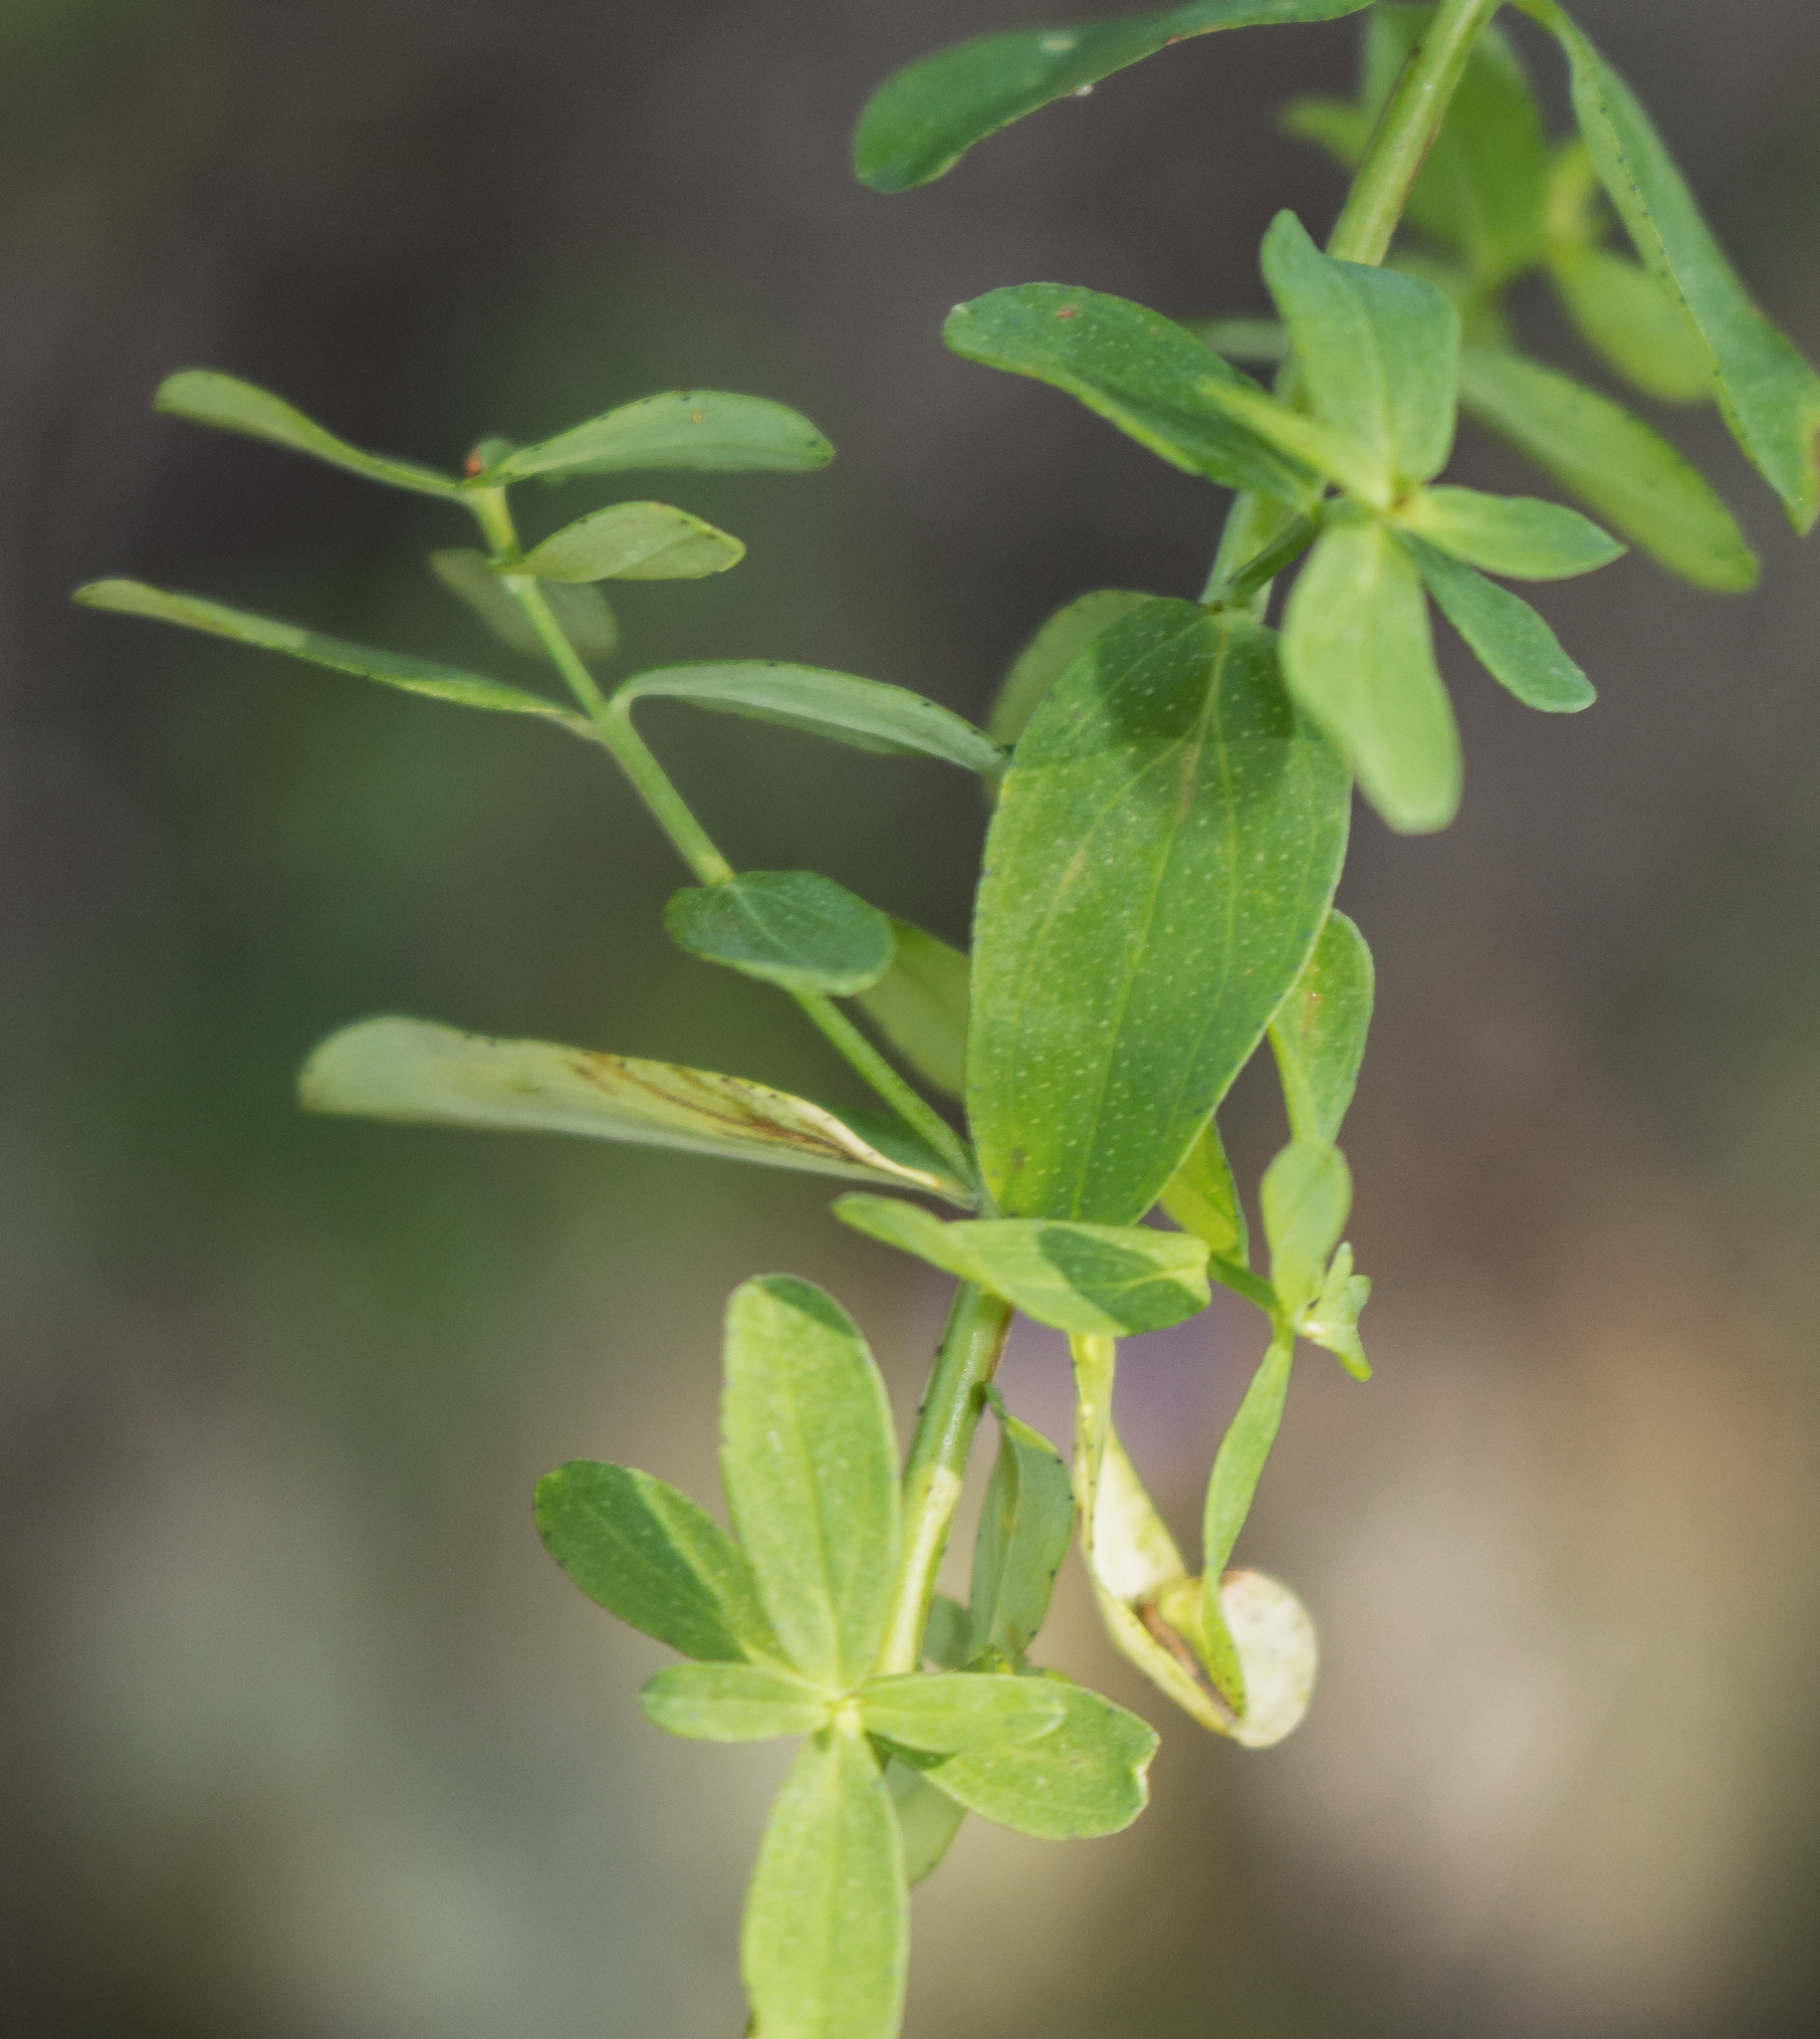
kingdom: Plantae
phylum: Tracheophyta
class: Magnoliopsida
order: Malpighiales
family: Hypericaceae
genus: Hypericum
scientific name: Hypericum perforatum
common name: Common st. johnswort
